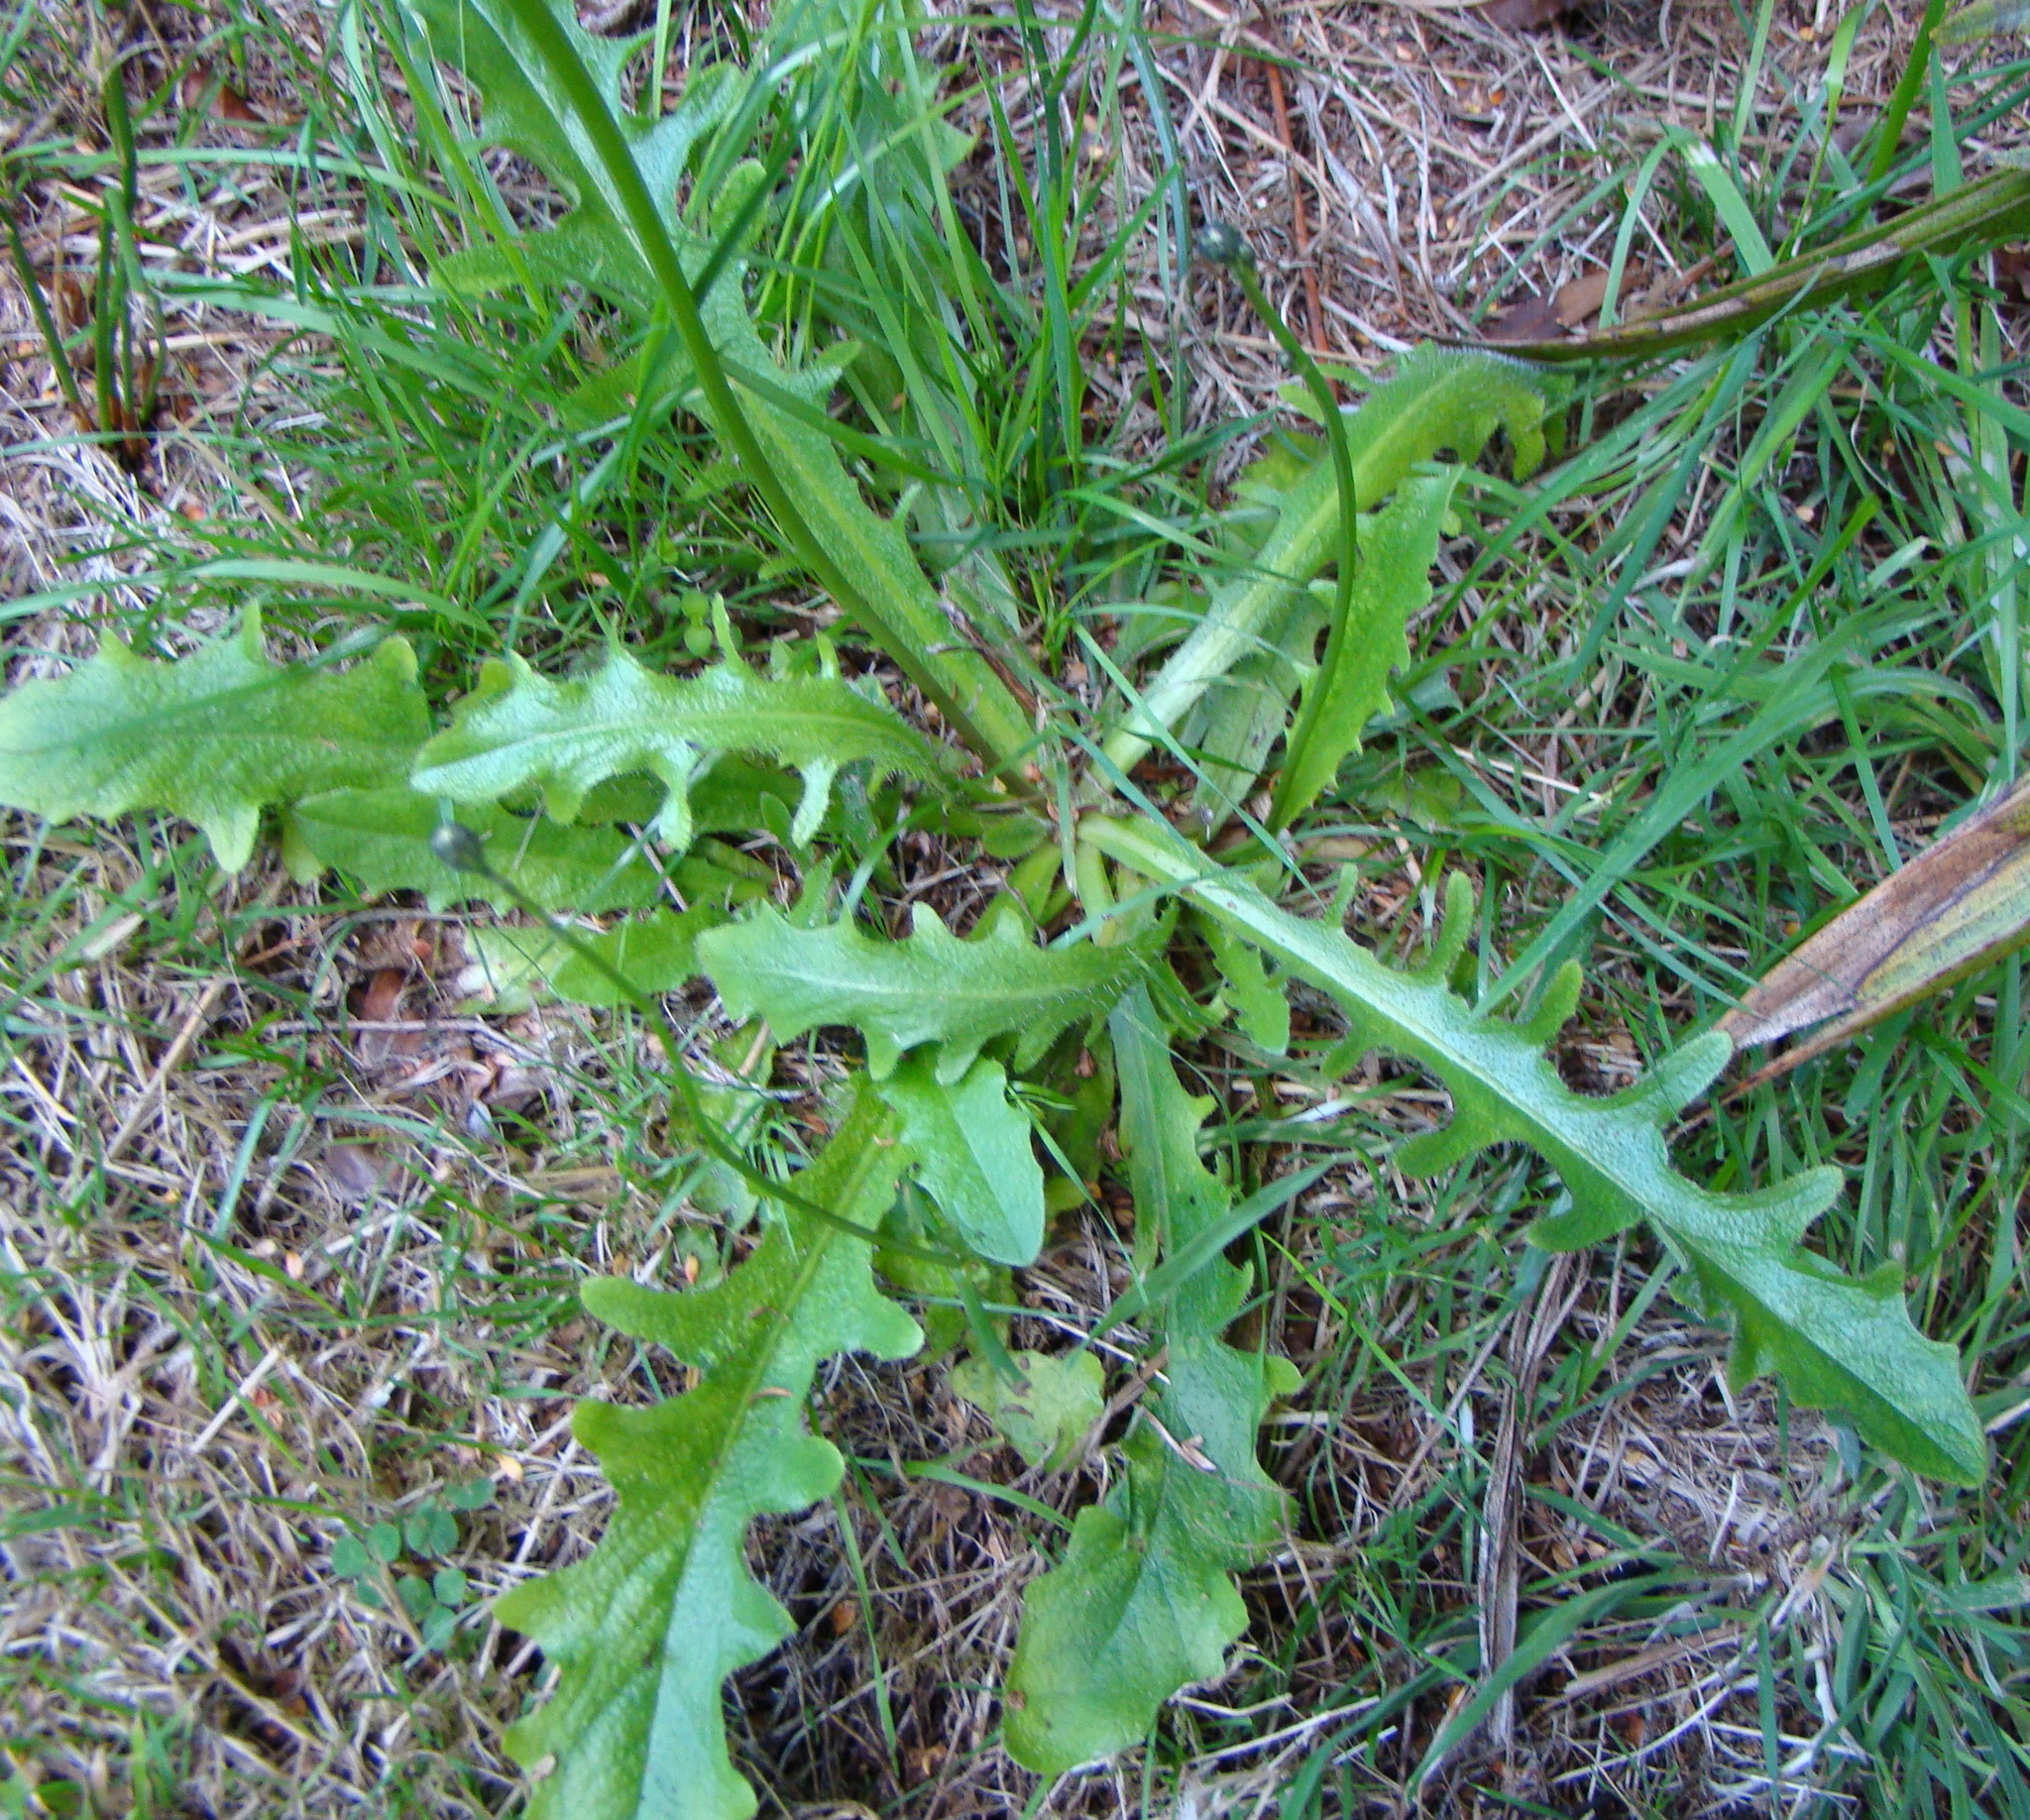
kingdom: Plantae
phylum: Tracheophyta
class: Magnoliopsida
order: Asterales
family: Asteraceae
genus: Hypochaeris
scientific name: Hypochaeris radicata
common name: Flatweed
